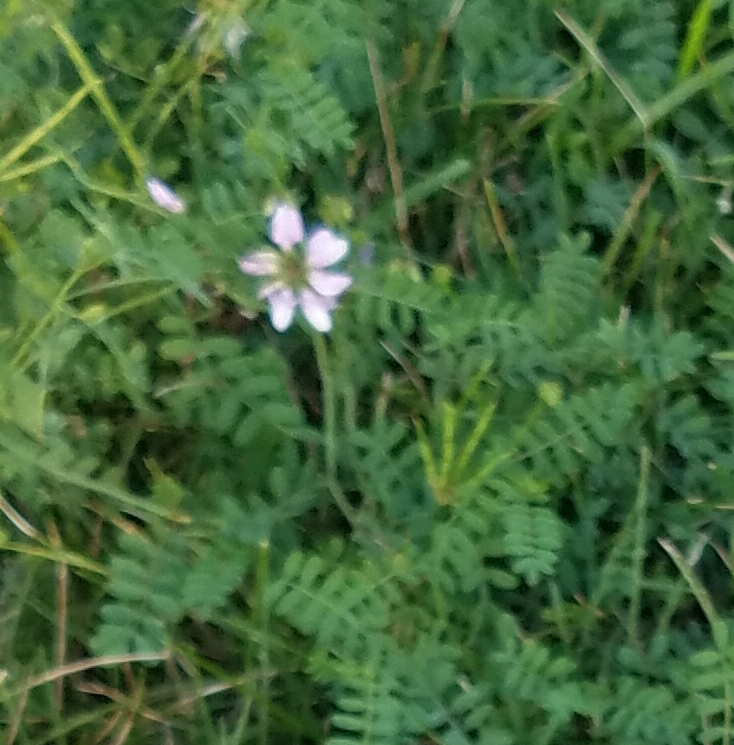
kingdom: Plantae
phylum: Tracheophyta
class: Magnoliopsida
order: Fabales
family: Fabaceae
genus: Coronilla
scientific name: Coronilla varia
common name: Crownvetch
